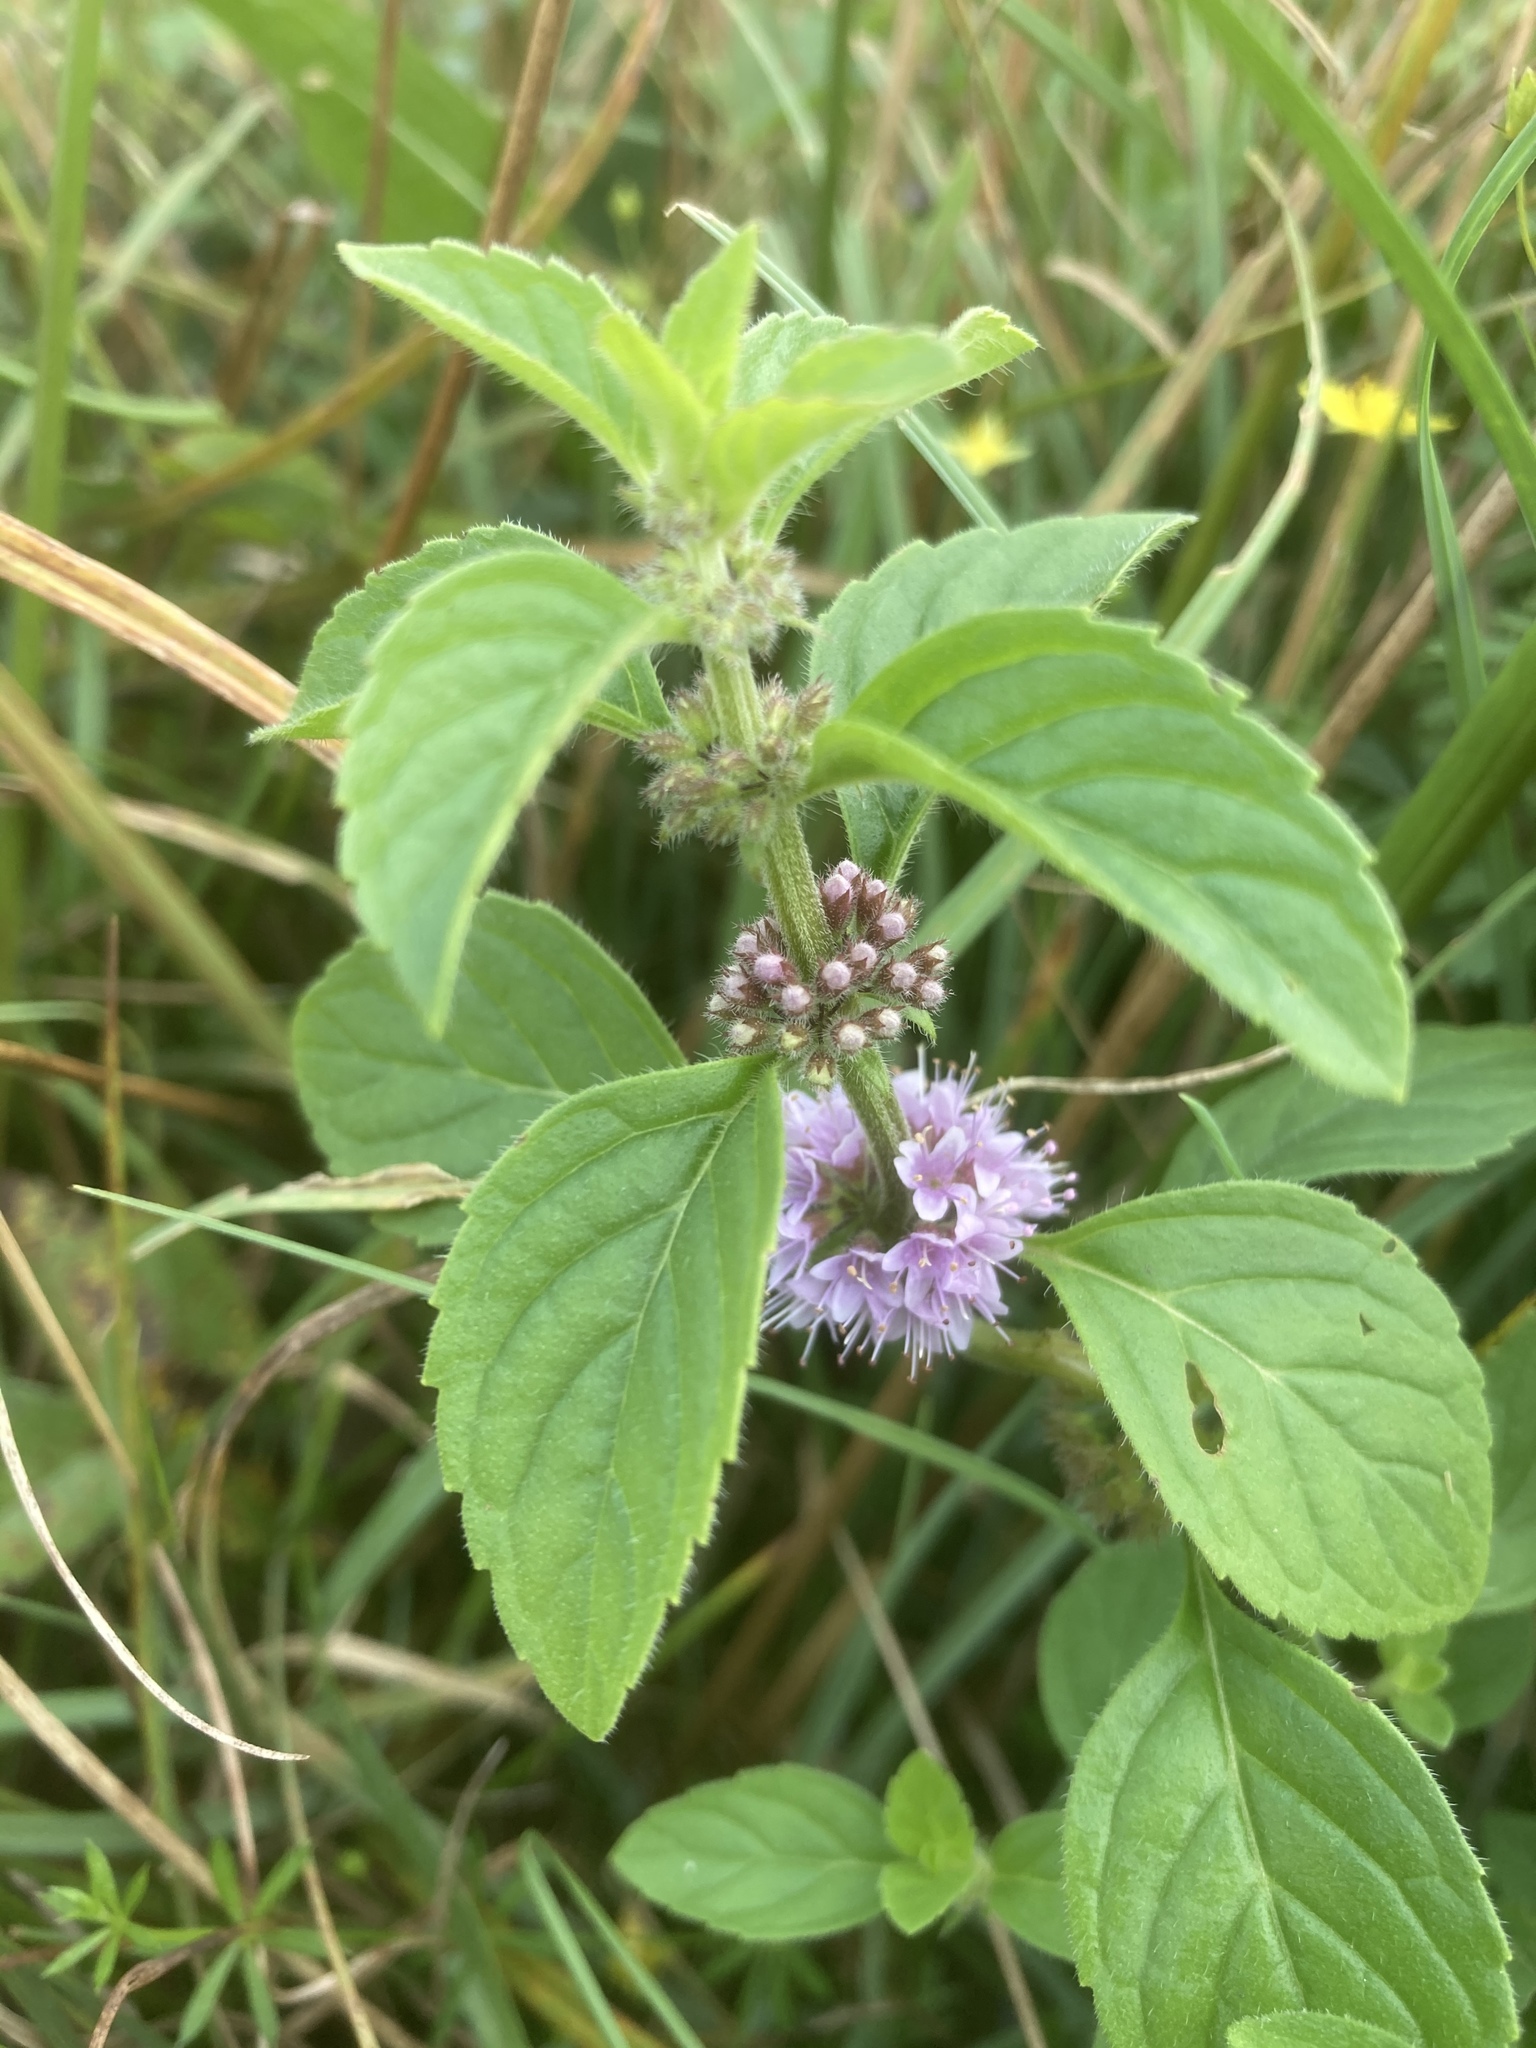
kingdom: Plantae
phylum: Tracheophyta
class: Magnoliopsida
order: Lamiales
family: Lamiaceae
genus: Mentha
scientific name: Mentha arvensis
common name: Corn mint
